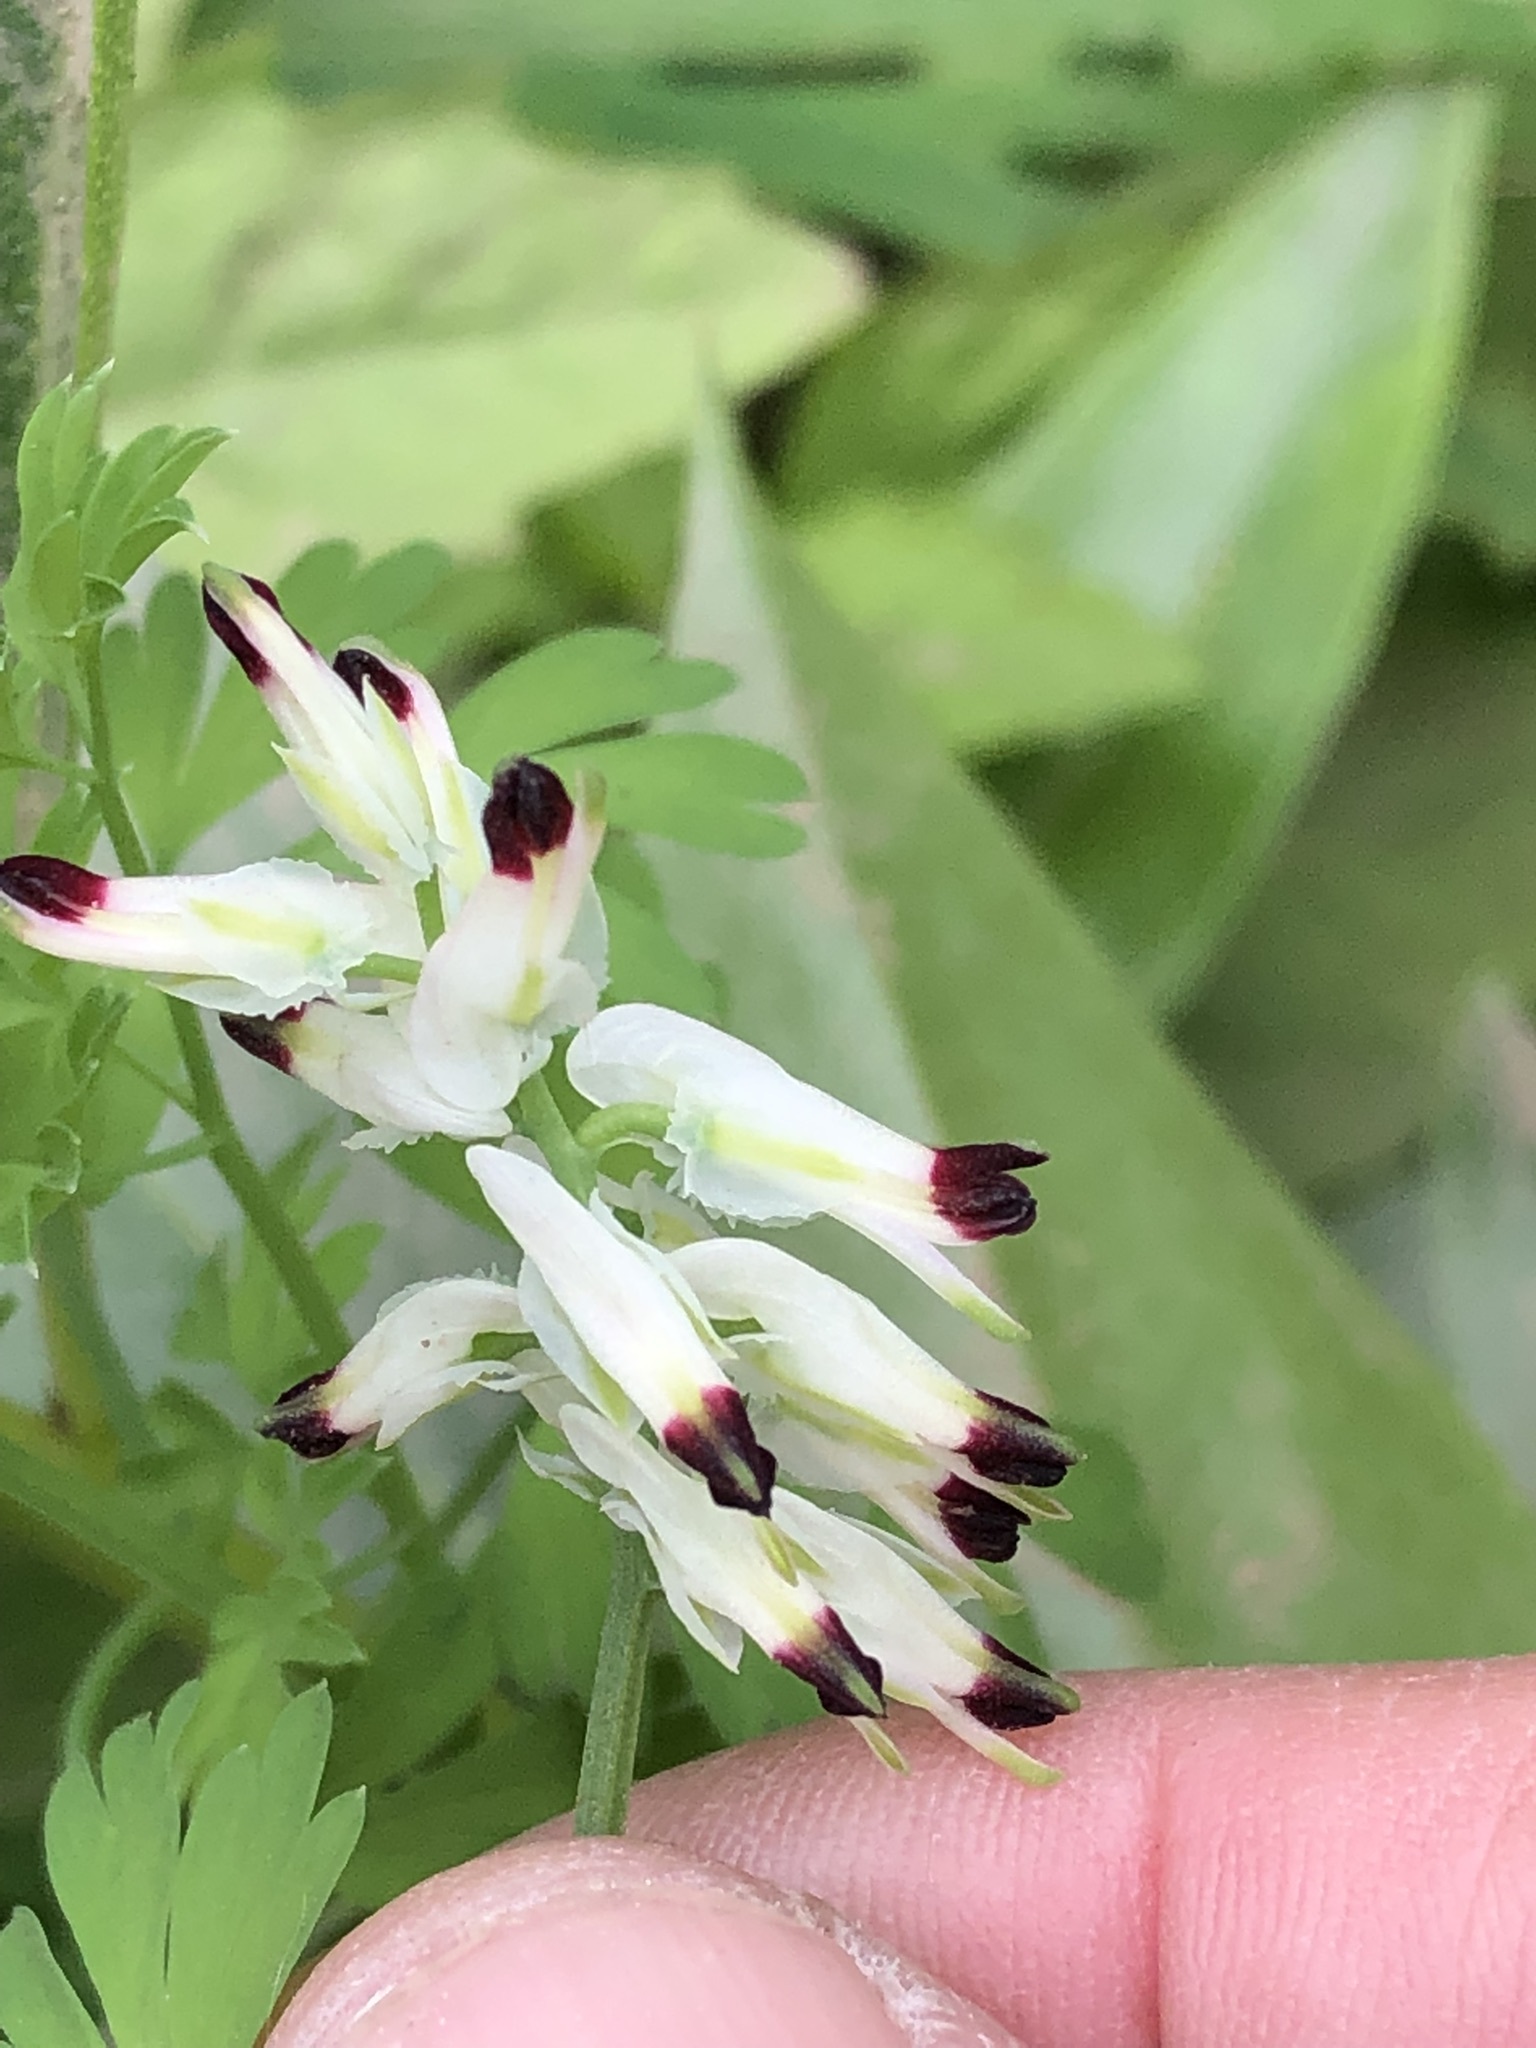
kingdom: Plantae
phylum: Tracheophyta
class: Magnoliopsida
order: Ranunculales
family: Papaveraceae
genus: Fumaria
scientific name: Fumaria capreolata
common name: White ramping-fumitory
